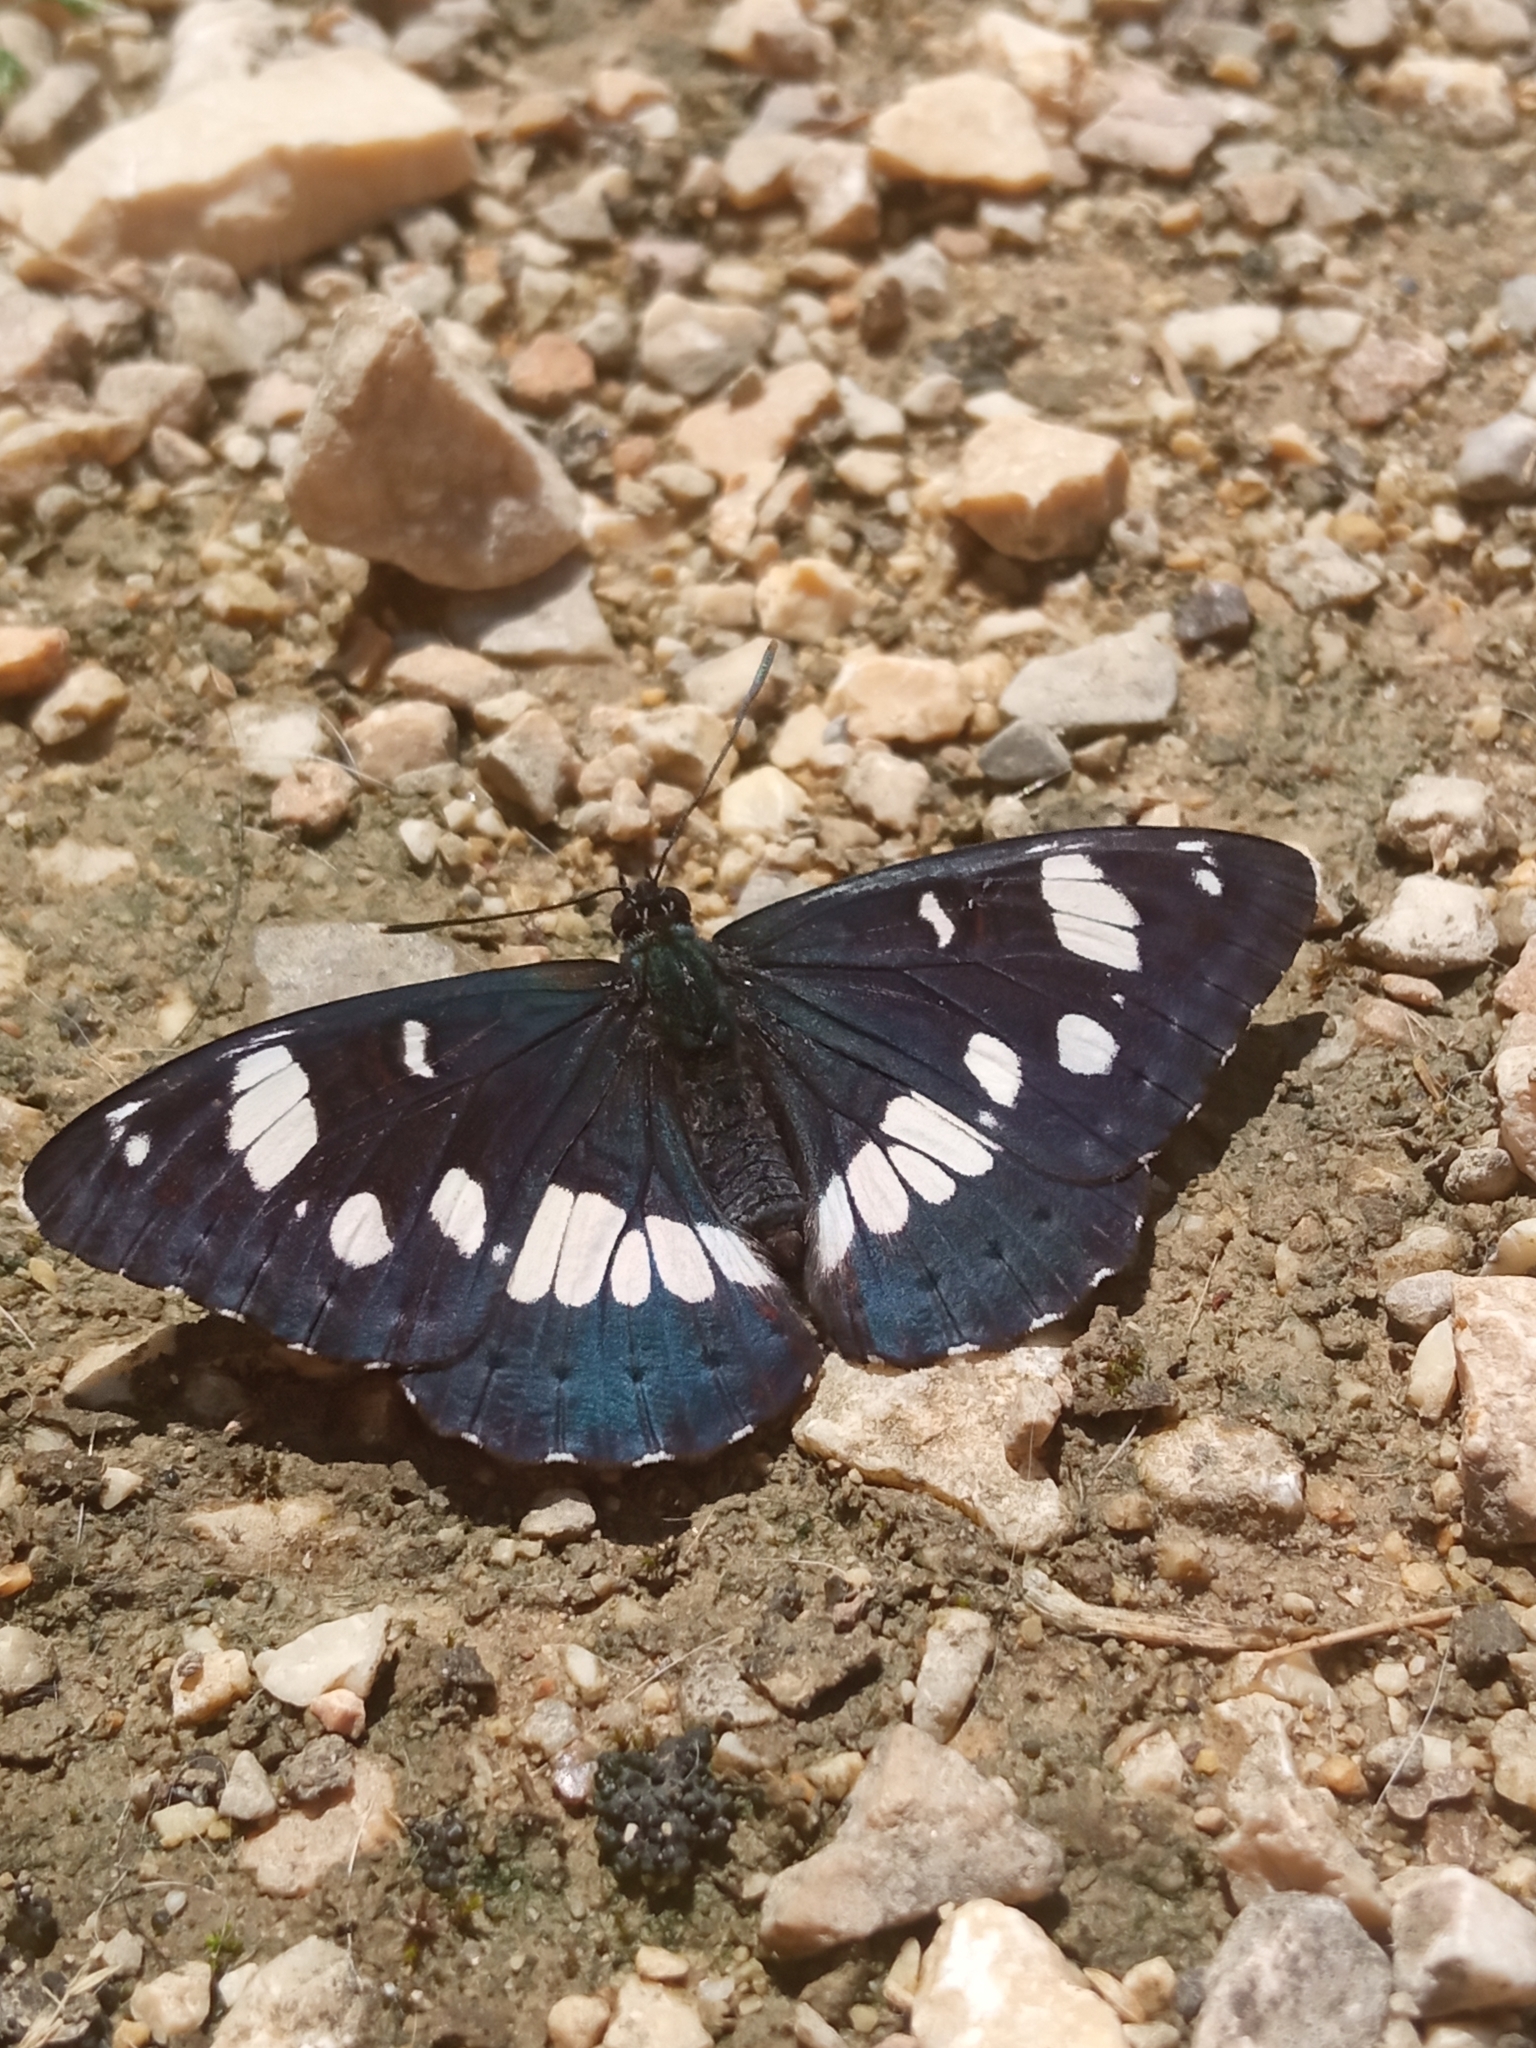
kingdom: Animalia
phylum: Arthropoda
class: Insecta
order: Lepidoptera
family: Nymphalidae
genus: Limenitis
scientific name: Limenitis reducta
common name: Southern white admiral
